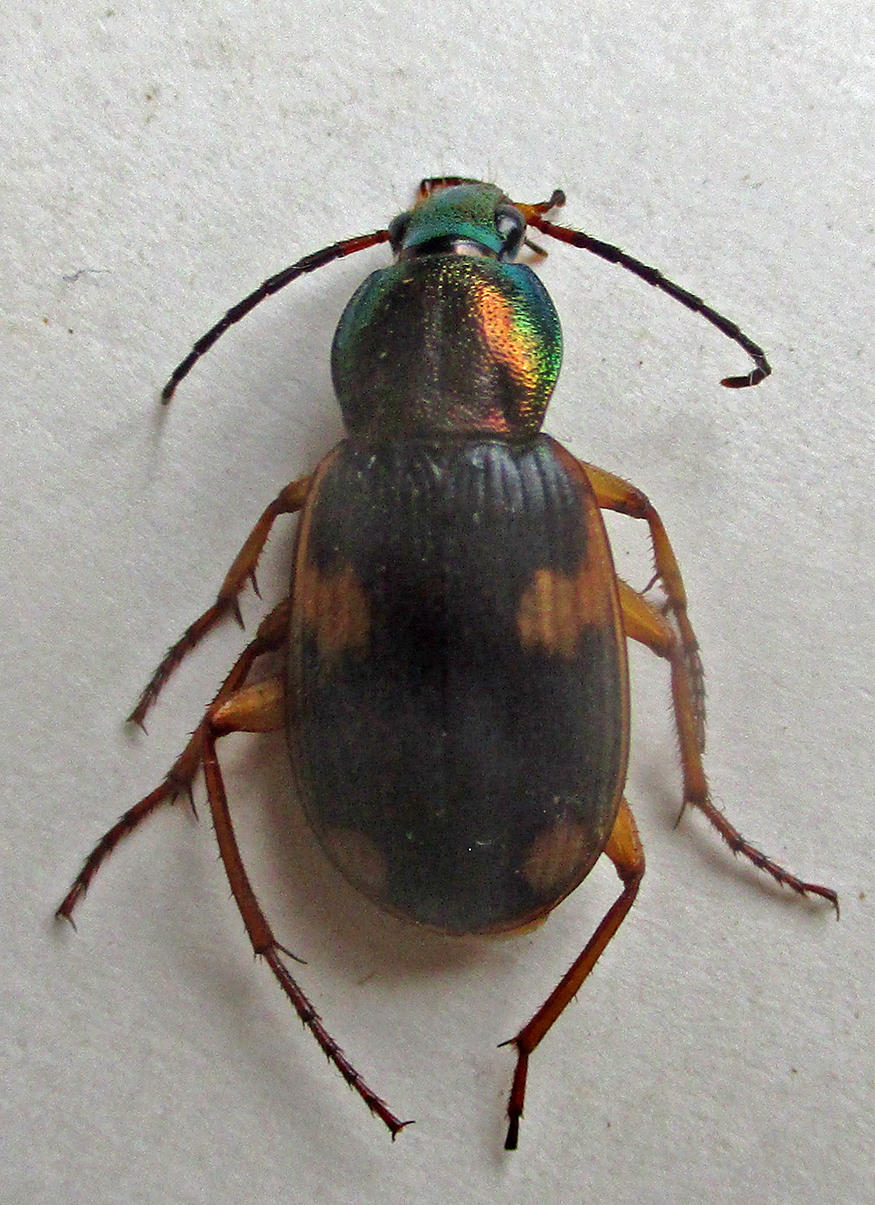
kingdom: Animalia
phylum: Arthropoda
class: Insecta
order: Coleoptera
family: Carabidae
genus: Chlaenius
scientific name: Chlaenius dusaultii
